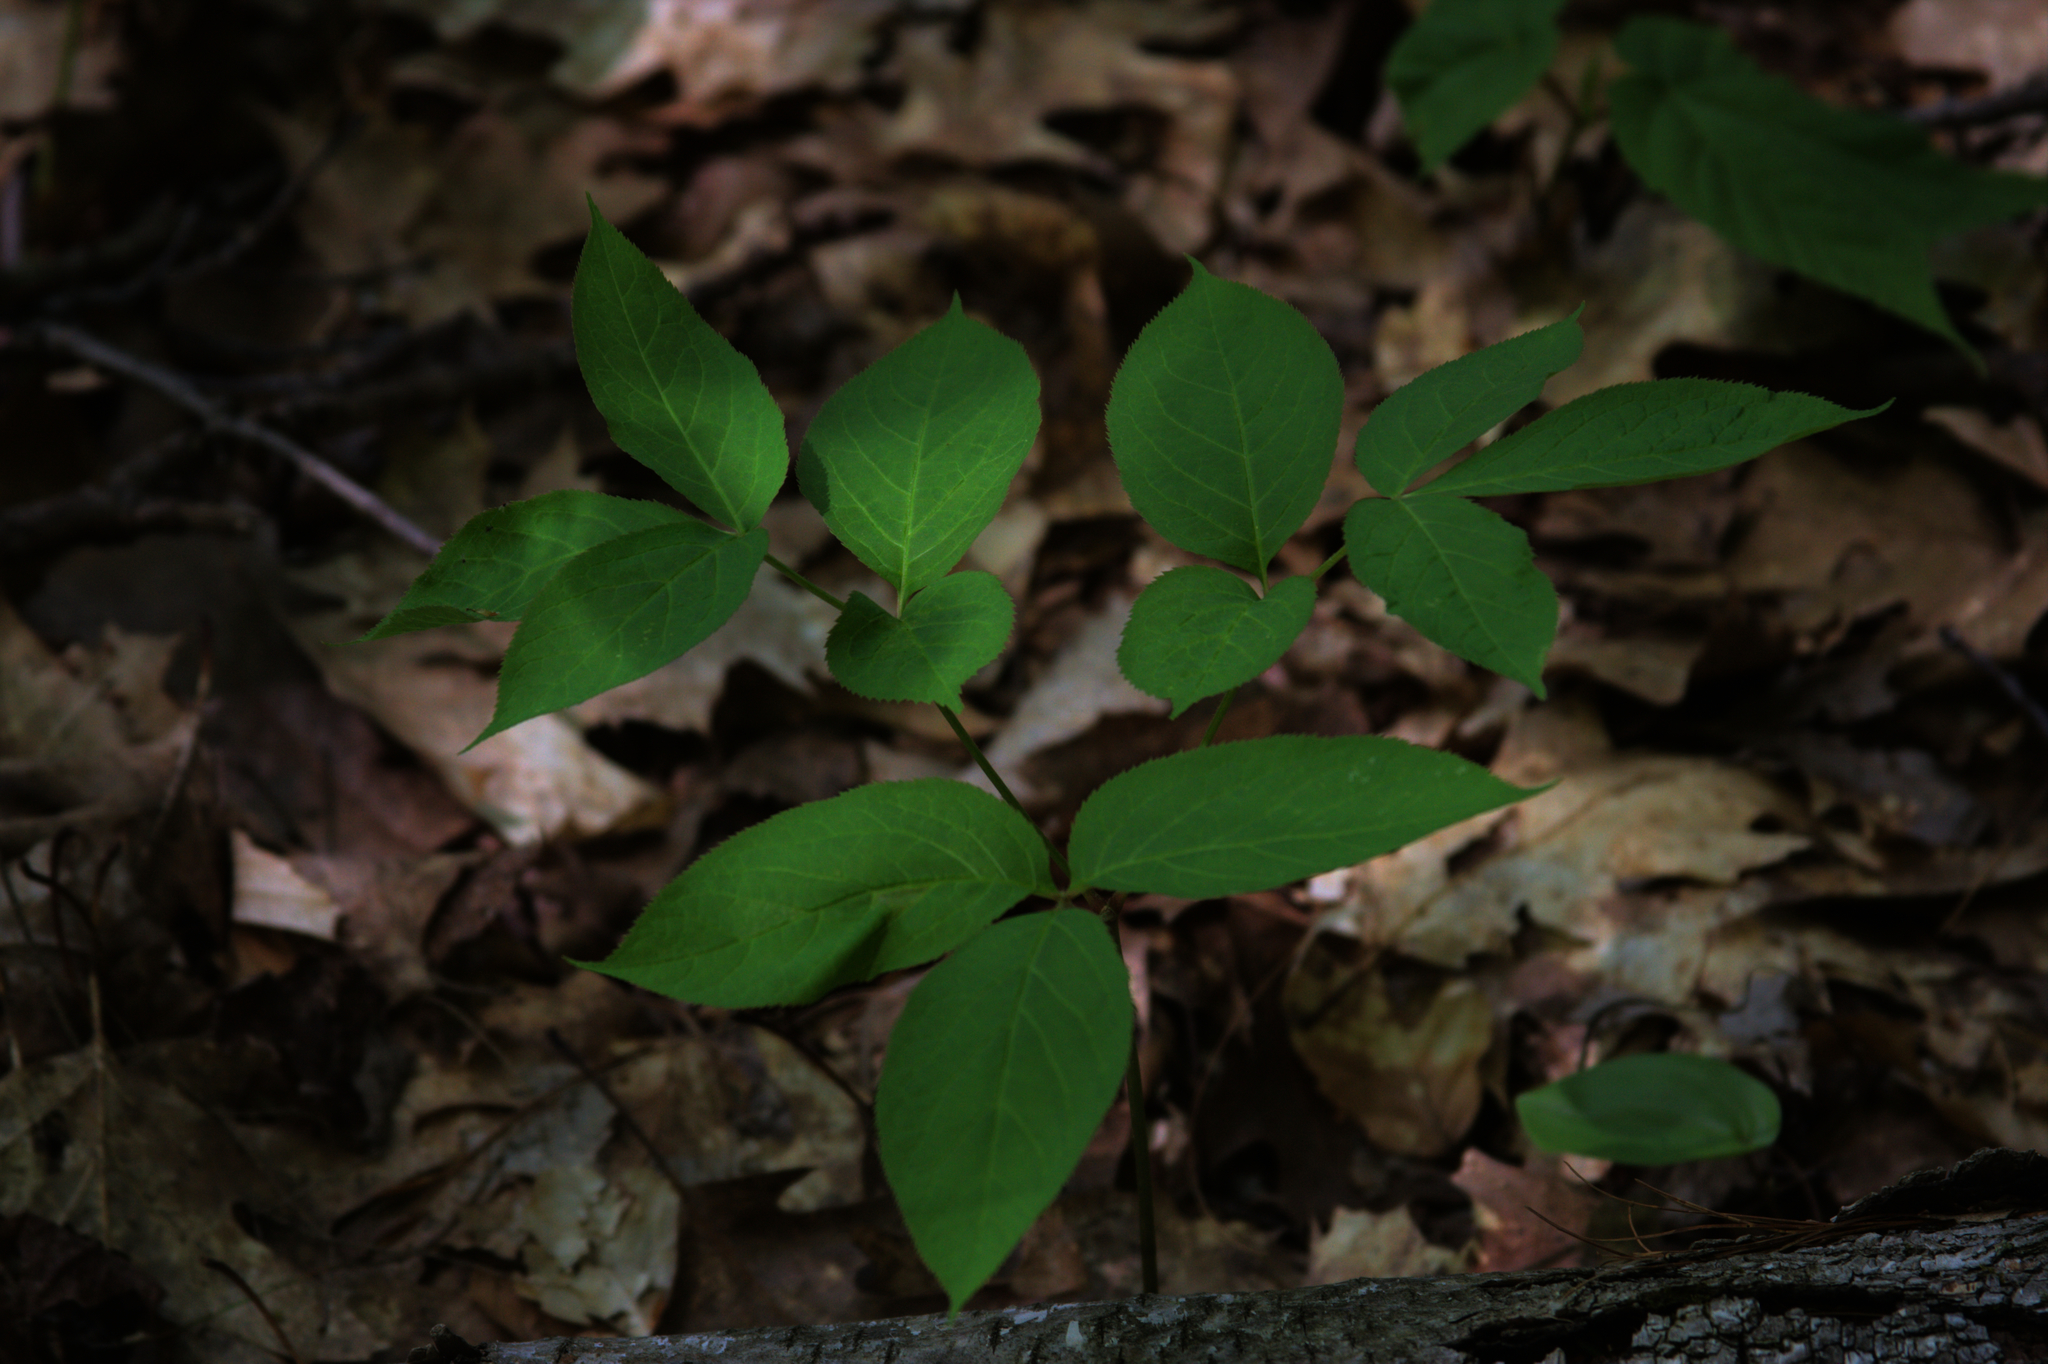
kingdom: Plantae
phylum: Tracheophyta
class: Magnoliopsida
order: Apiales
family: Araliaceae
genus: Aralia
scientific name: Aralia nudicaulis
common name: Wild sarsaparilla
